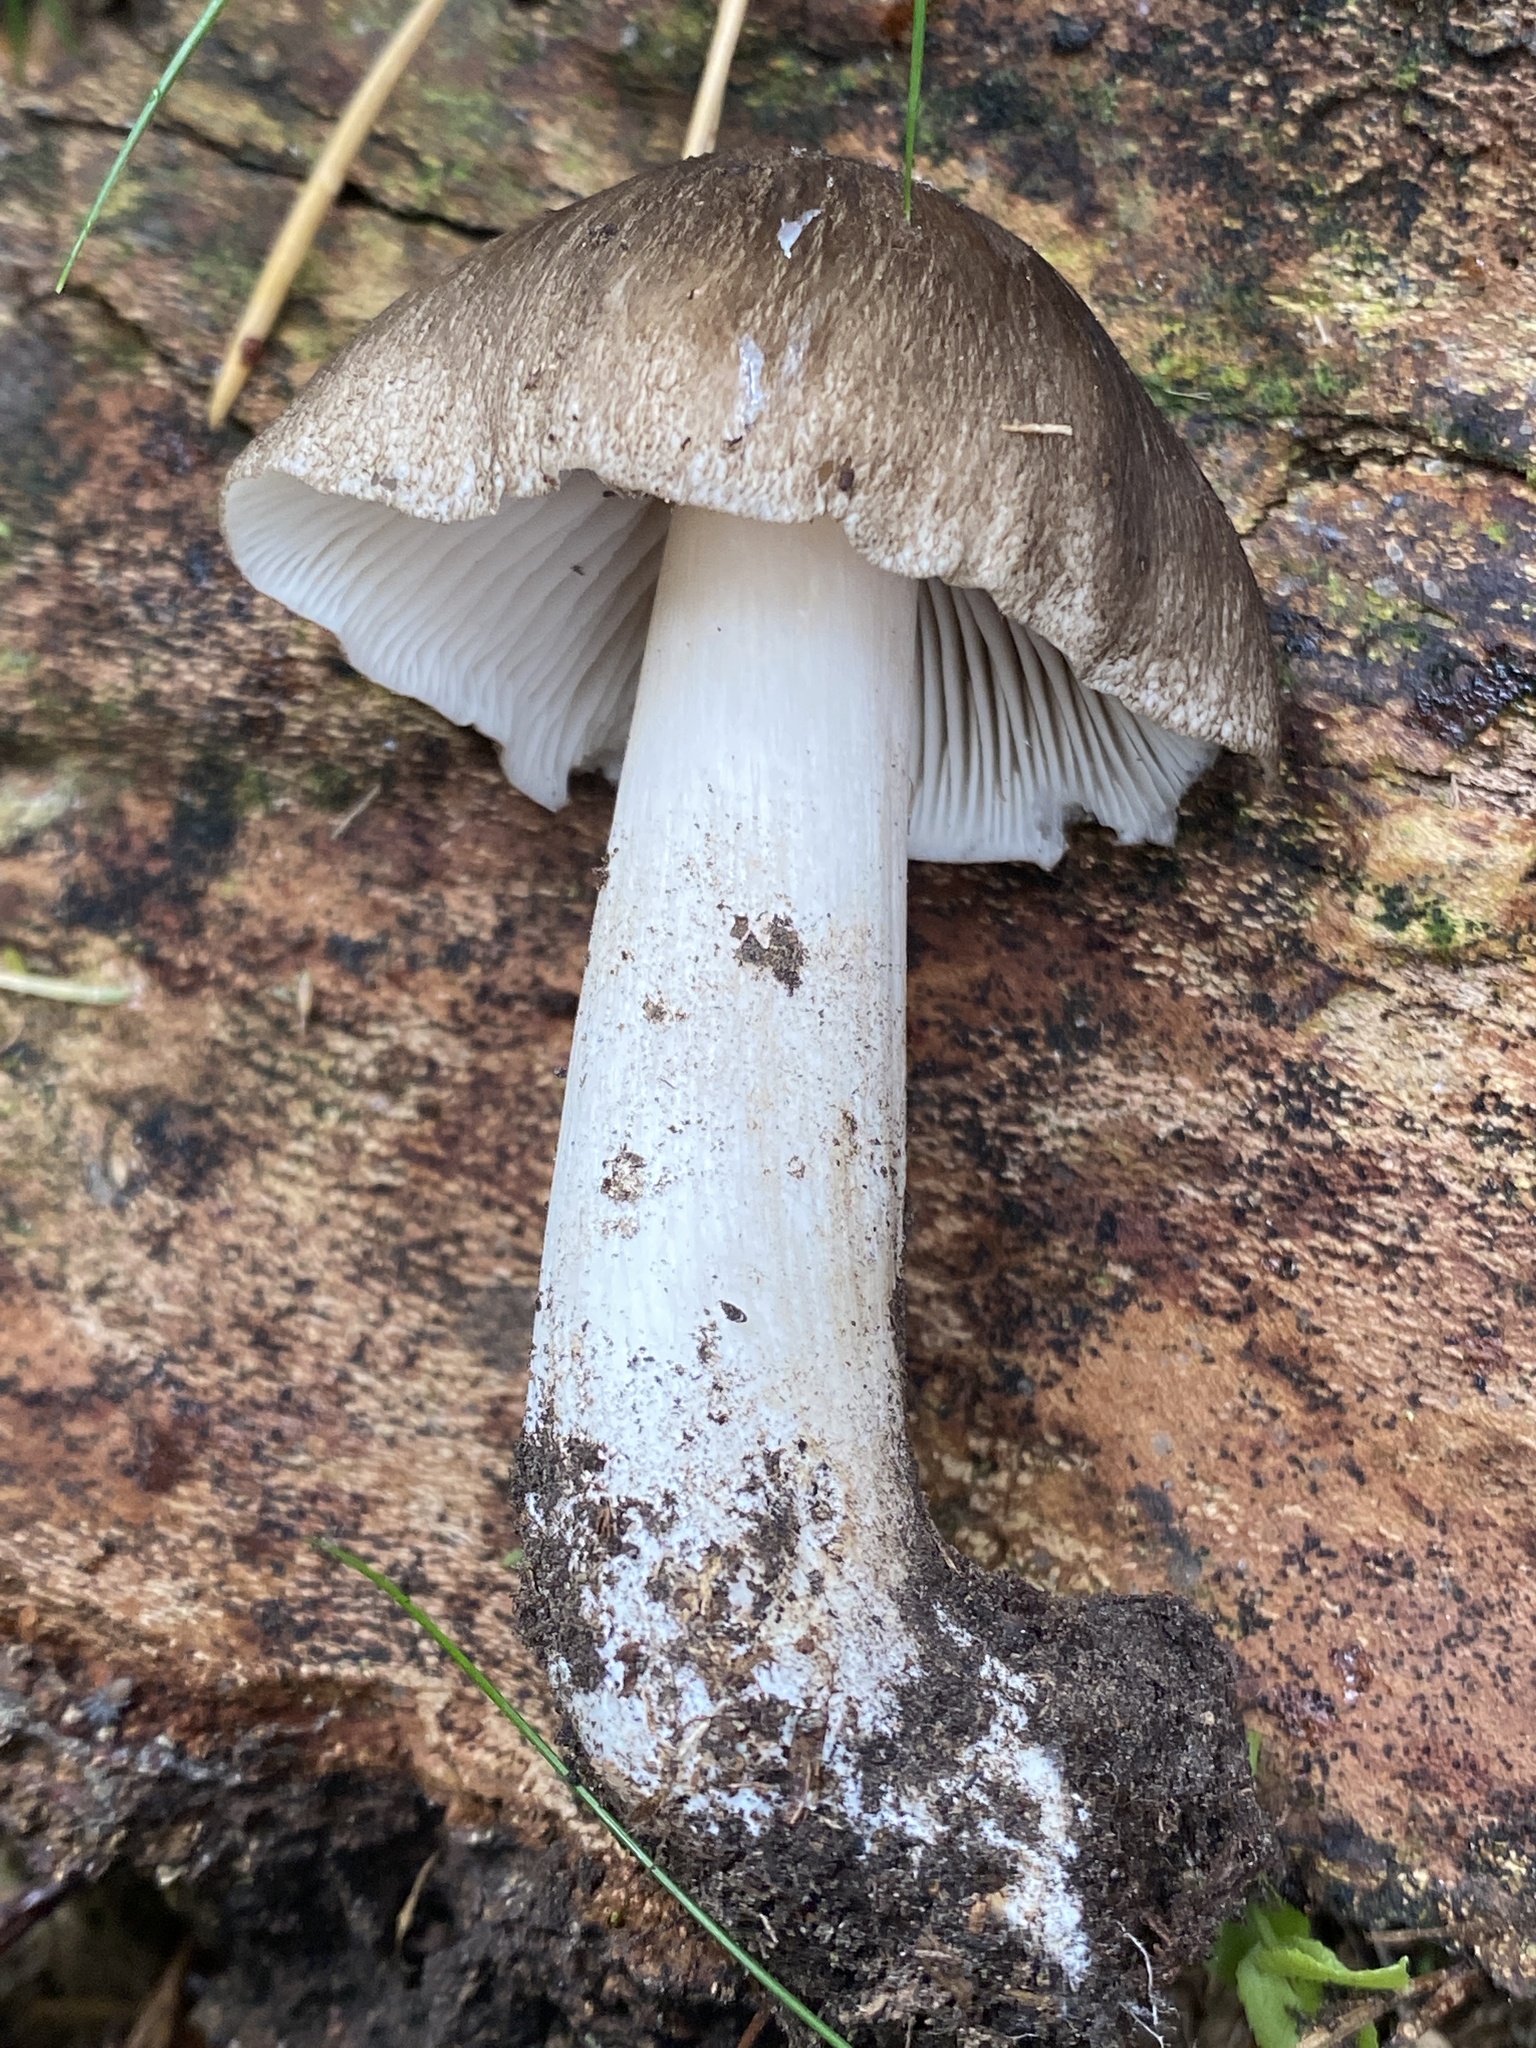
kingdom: Fungi
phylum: Basidiomycota
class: Agaricomycetes
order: Agaricales
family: Tricholomataceae
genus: Megacollybia
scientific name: Megacollybia platyphylla
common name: Whitelaced shank
